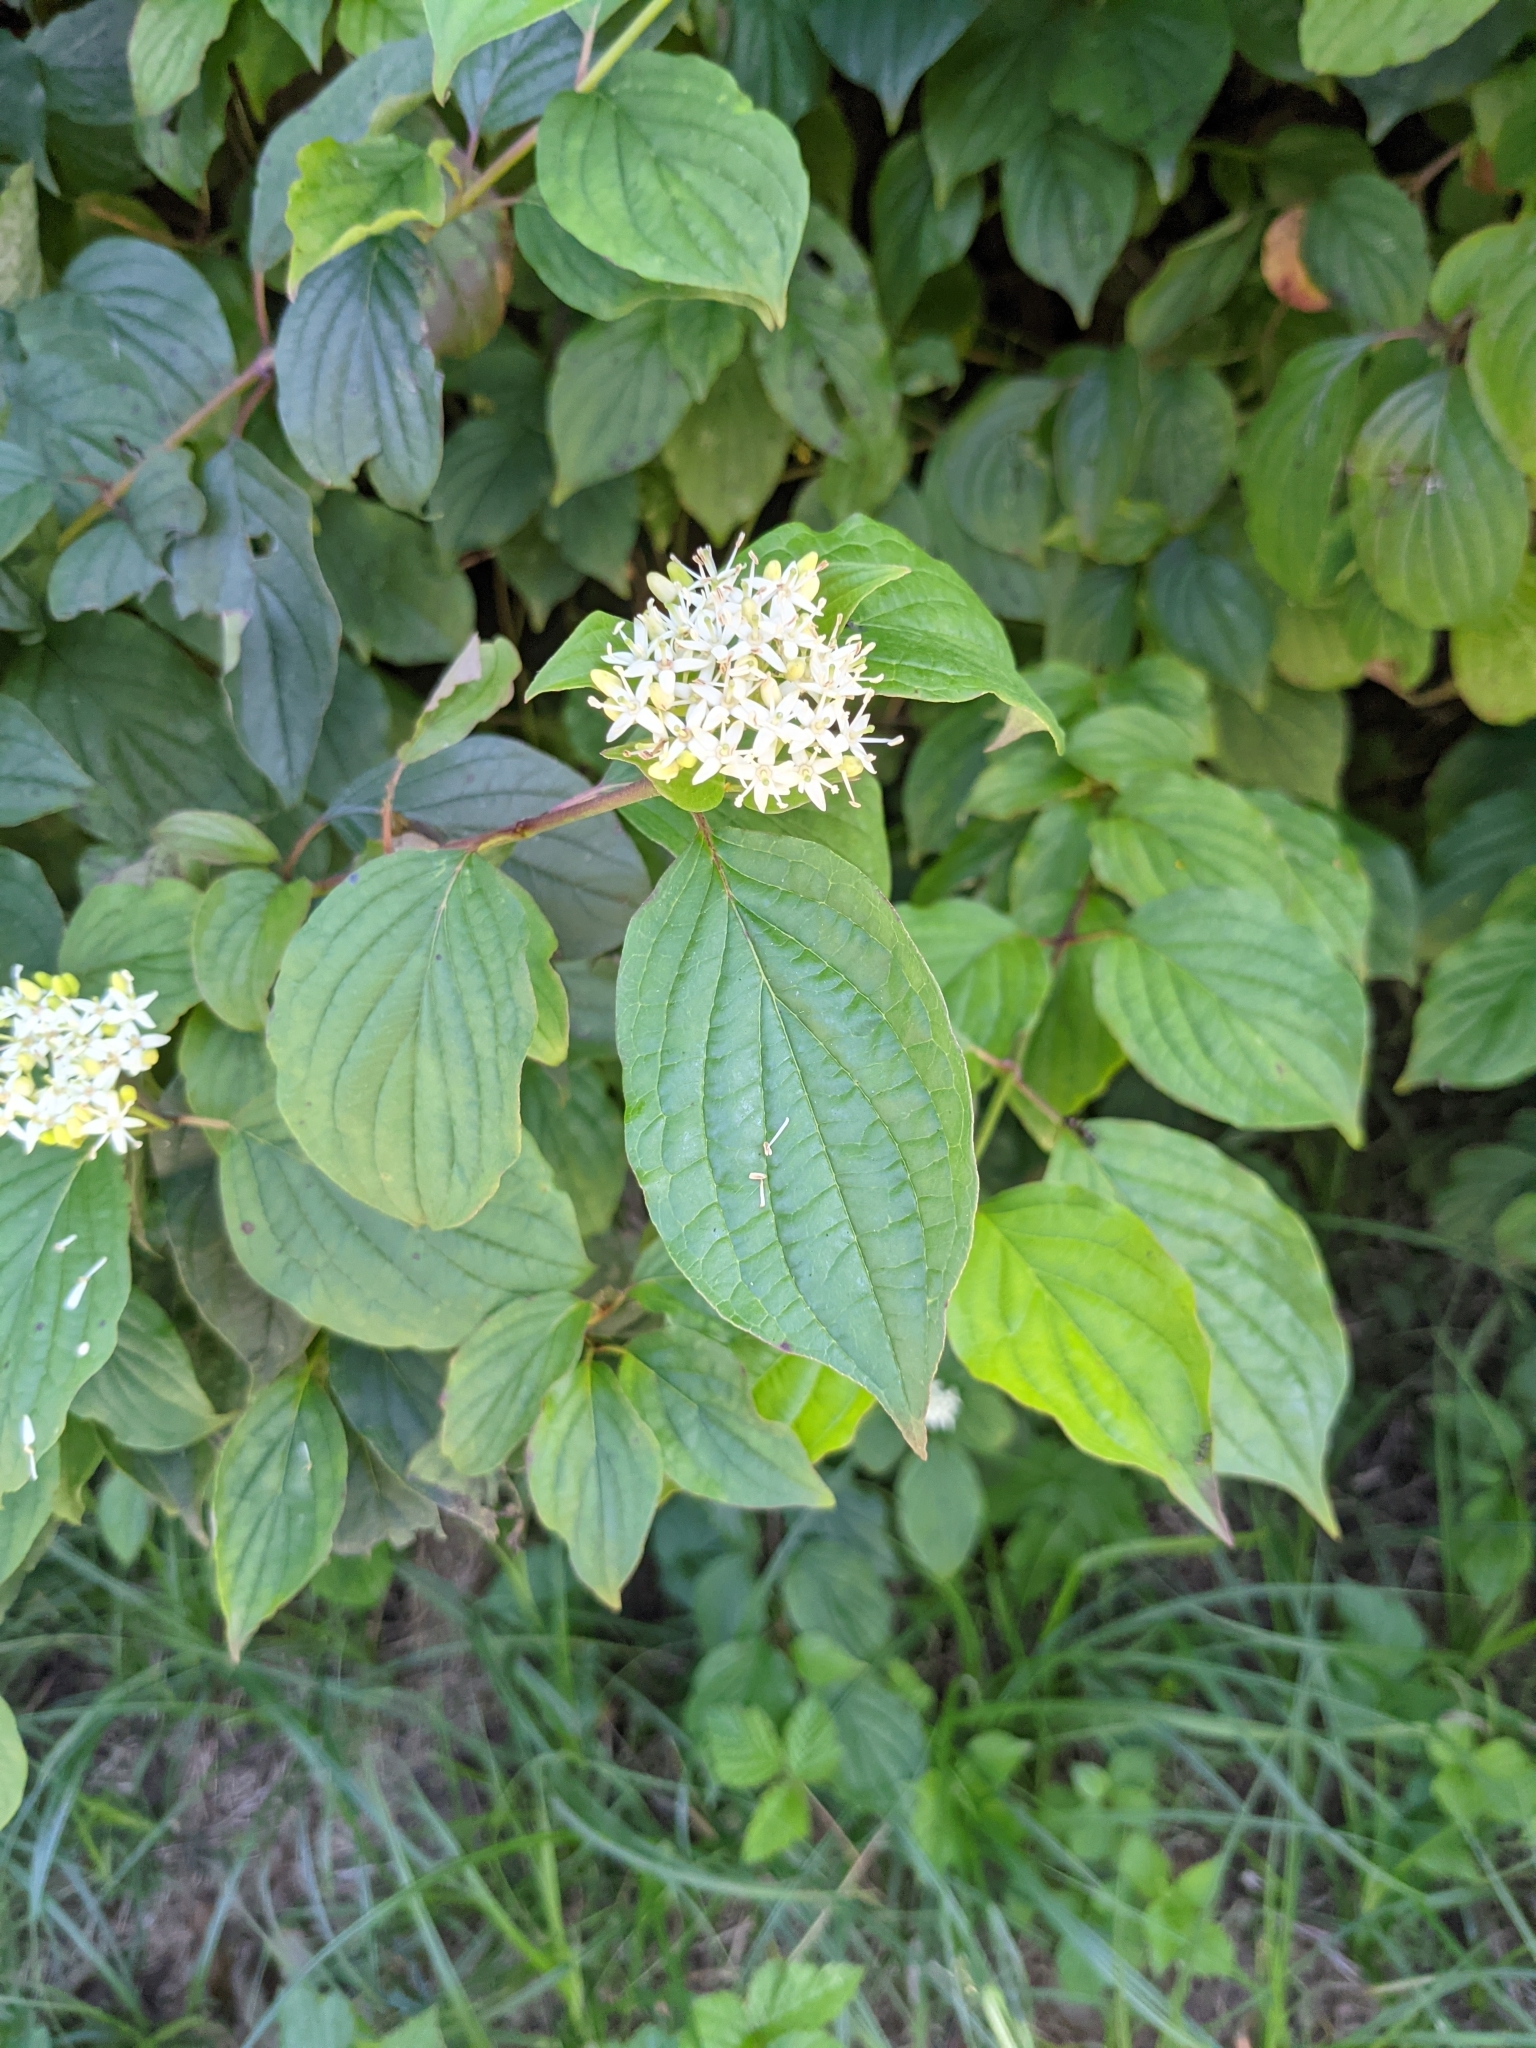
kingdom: Plantae
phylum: Tracheophyta
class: Magnoliopsida
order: Cornales
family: Cornaceae
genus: Cornus
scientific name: Cornus sanguinea
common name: Dogwood
